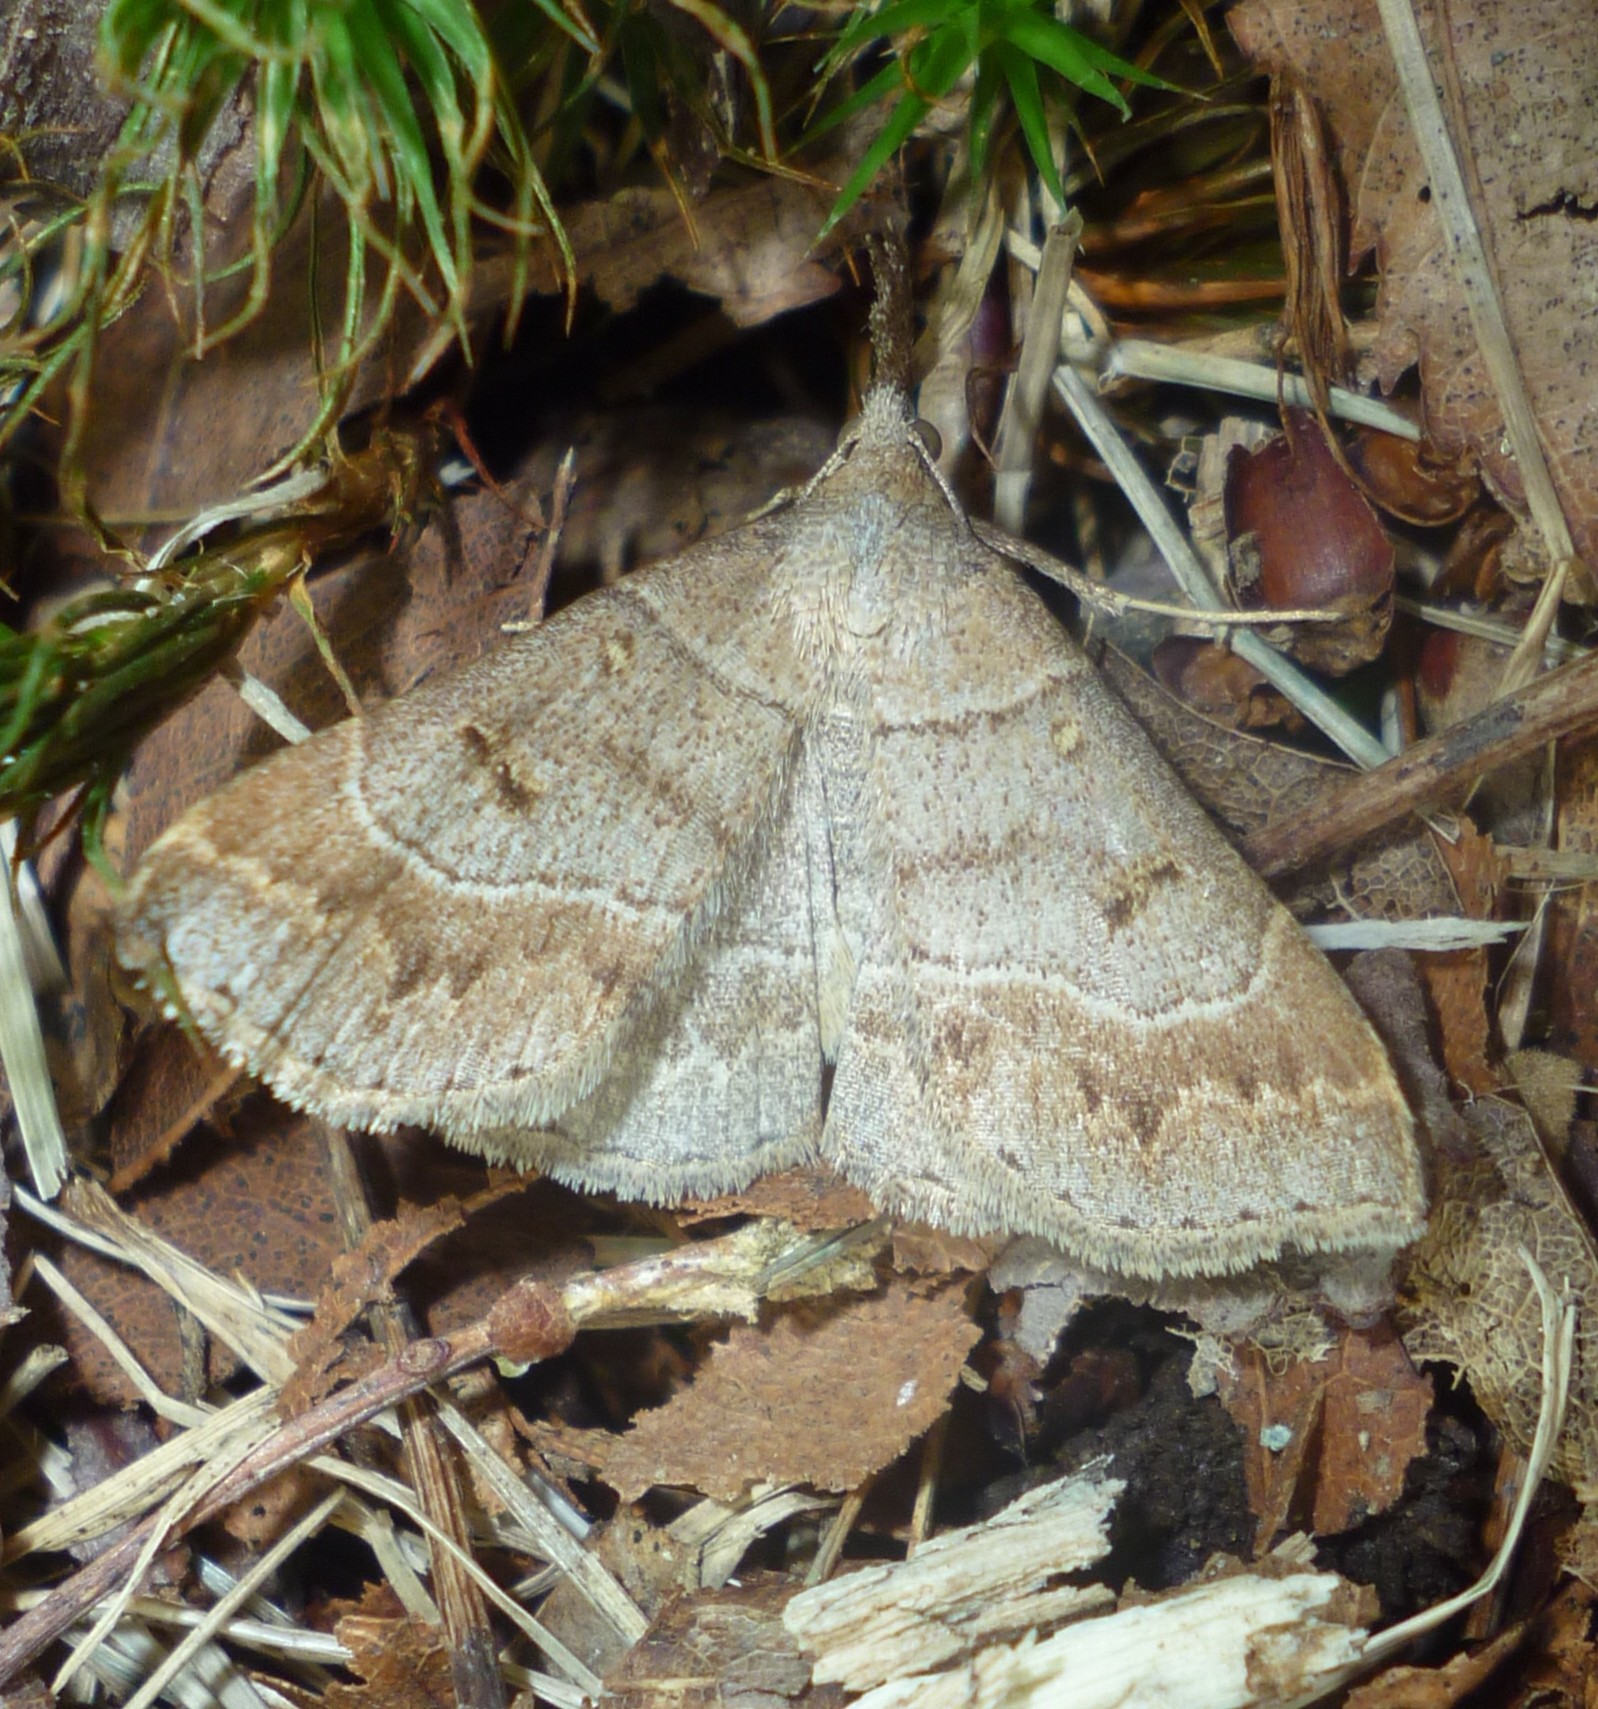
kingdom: Animalia
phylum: Arthropoda
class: Insecta
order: Lepidoptera
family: Erebidae
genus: Renia
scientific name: Renia flavipunctalis
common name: Yellow-spotted renia moth
